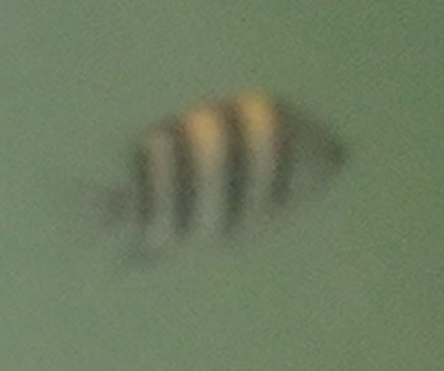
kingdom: Animalia
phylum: Chordata
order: Perciformes
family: Pomacentridae
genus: Abudefduf
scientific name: Abudefduf vaigiensis
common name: Indo-pacific sergeant
